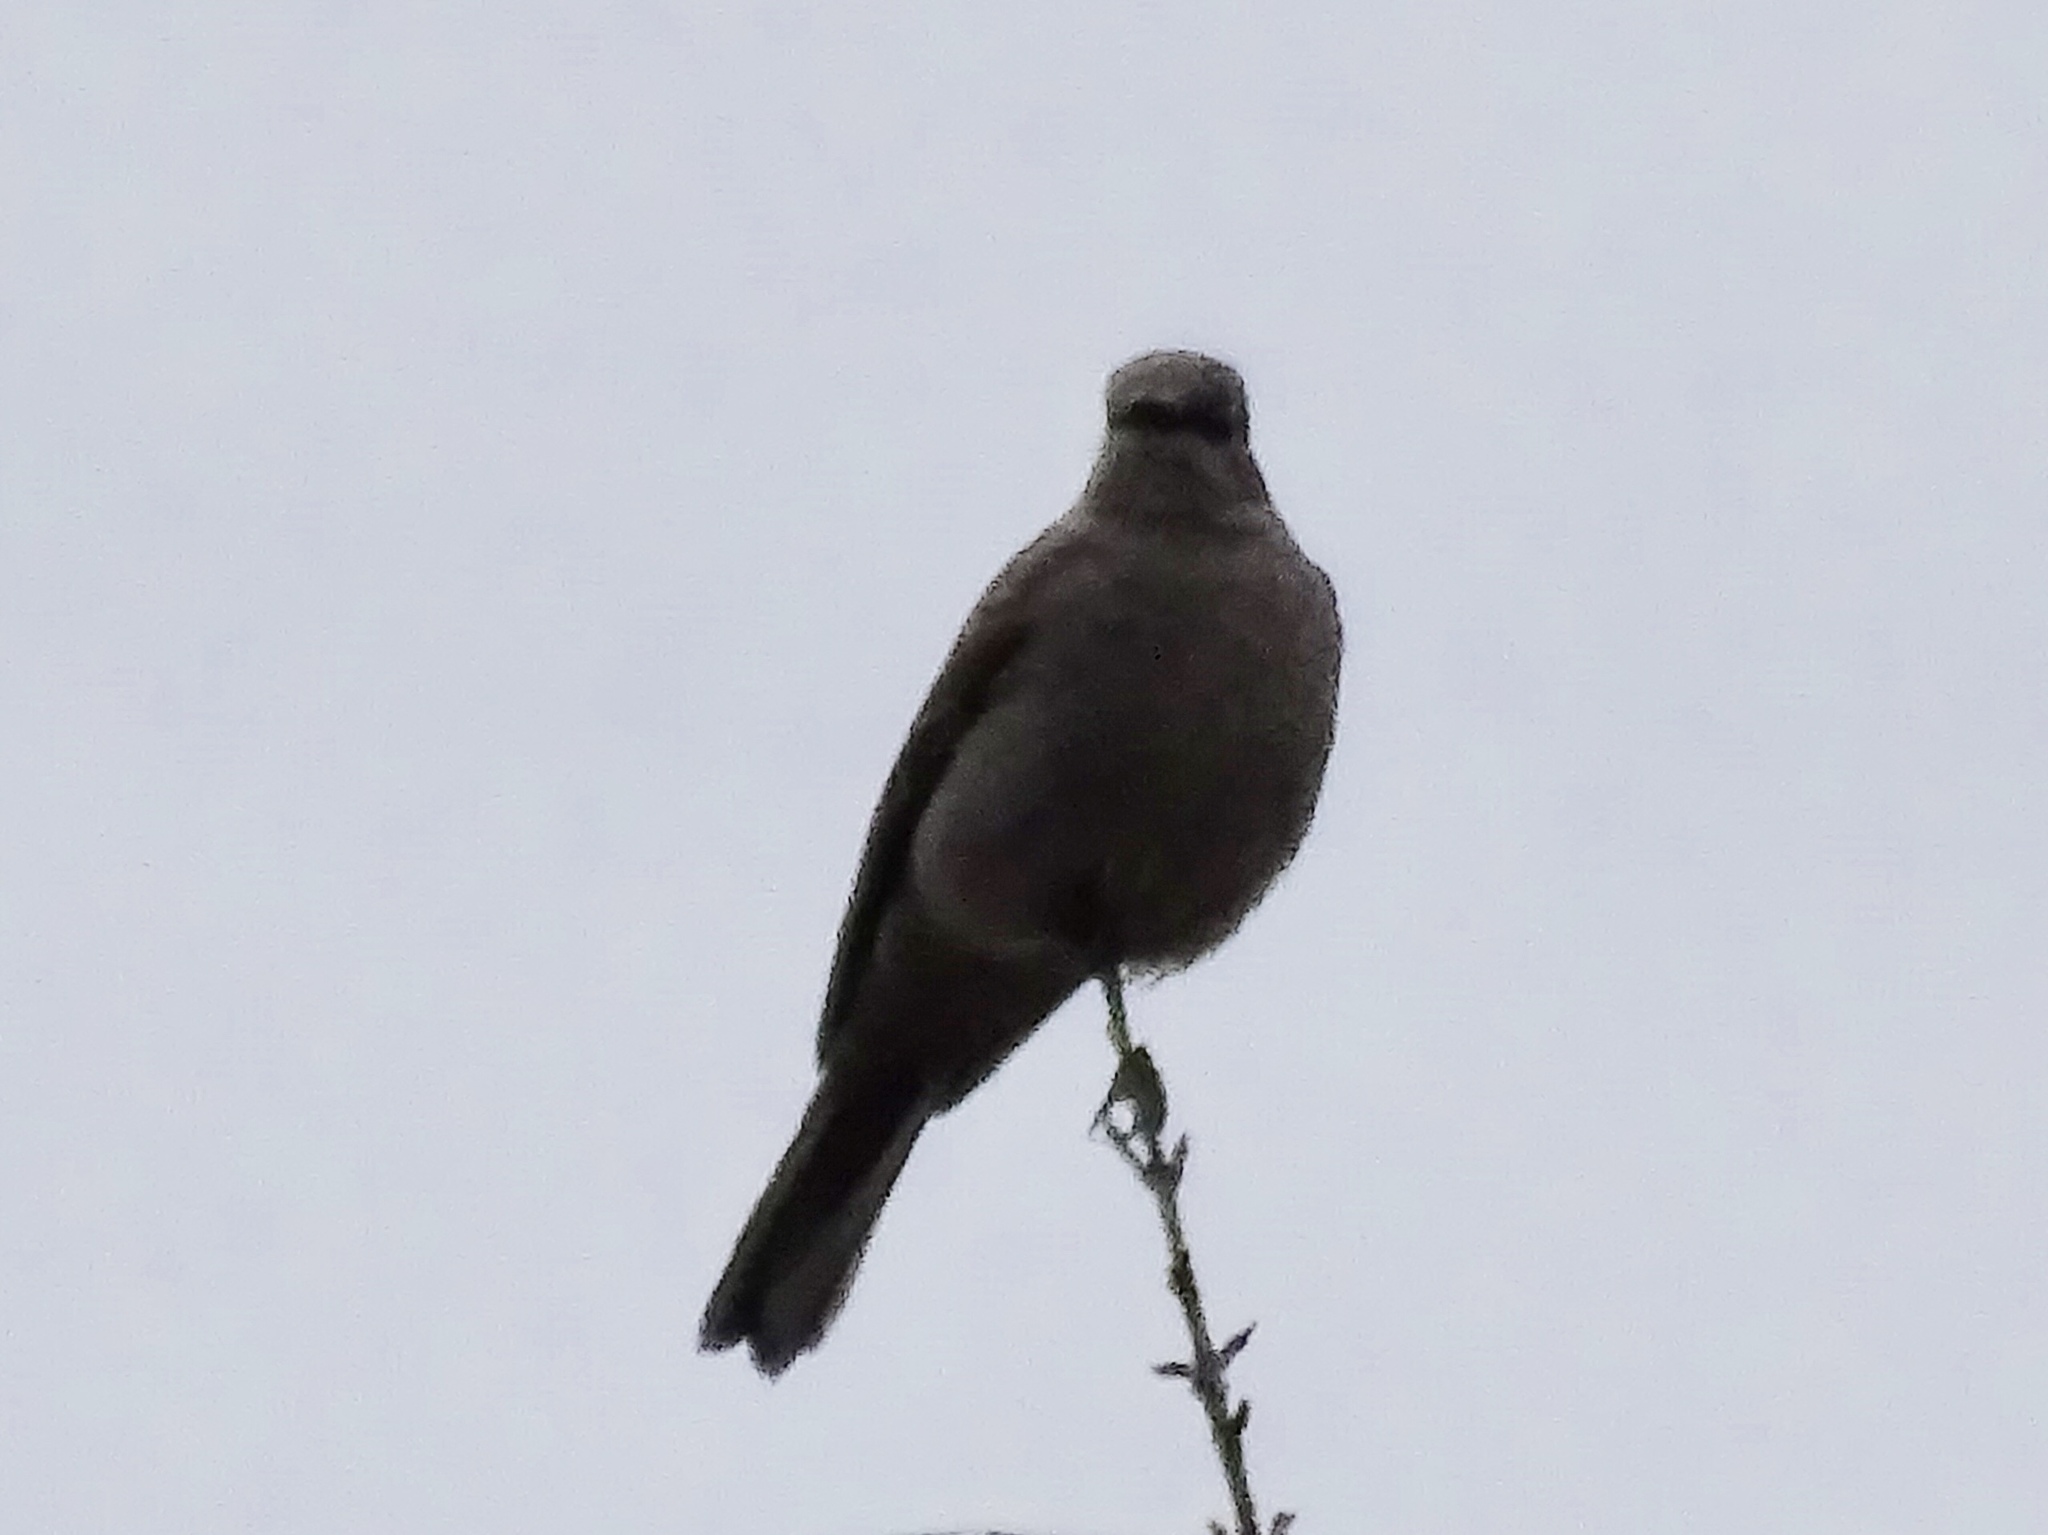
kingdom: Animalia
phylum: Chordata
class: Aves
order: Passeriformes
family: Turdidae
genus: Myadestes
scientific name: Myadestes townsendi
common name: Townsend's solitaire
